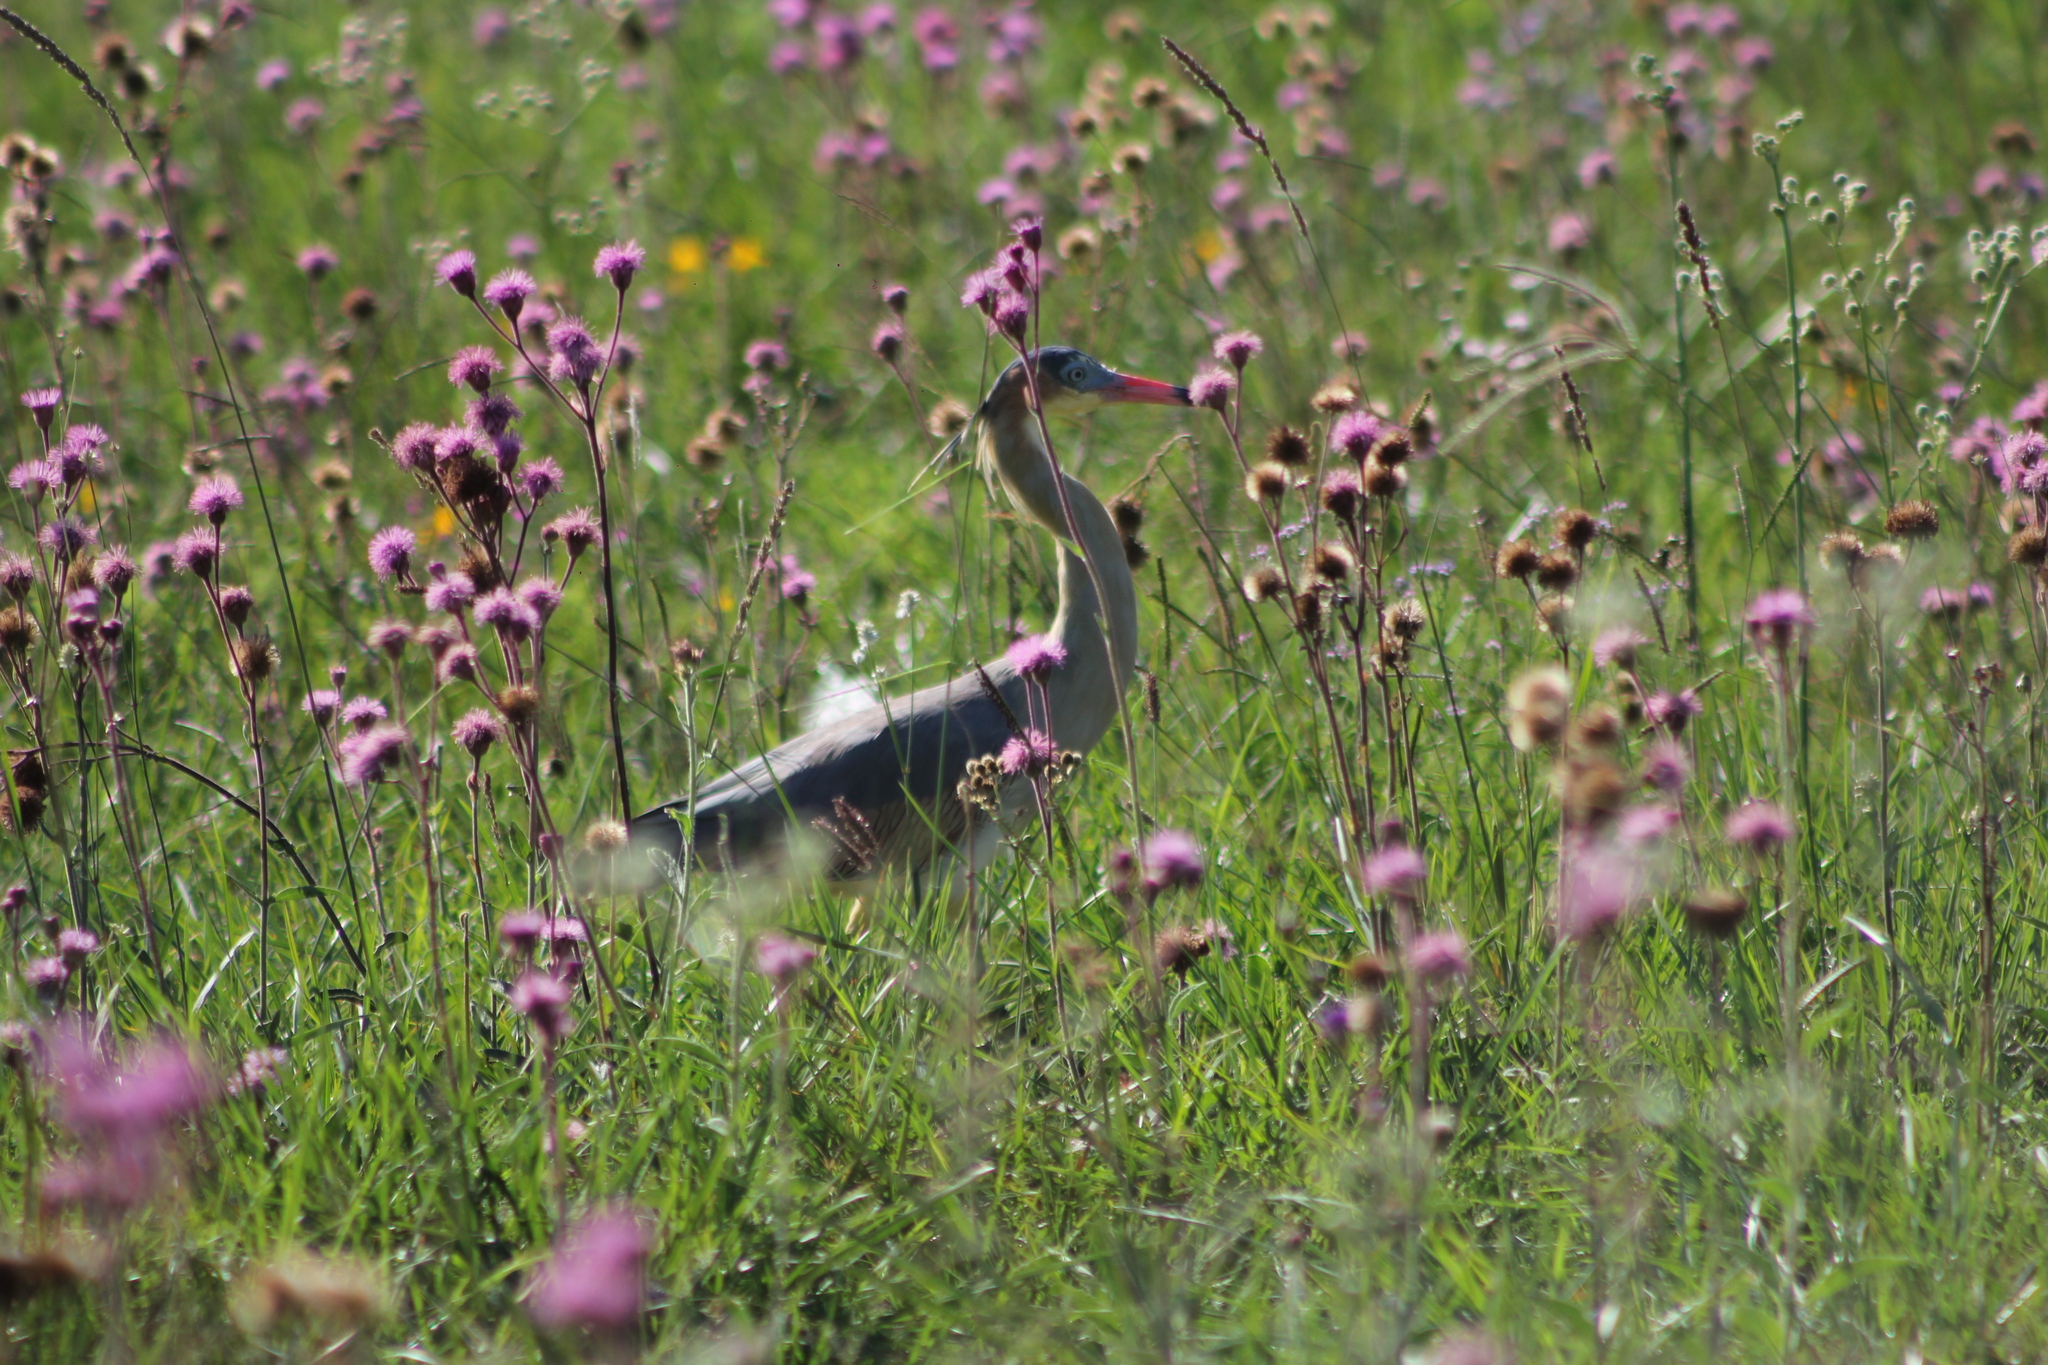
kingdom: Animalia
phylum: Chordata
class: Aves
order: Pelecaniformes
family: Ardeidae
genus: Syrigma
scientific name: Syrigma sibilatrix
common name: Whistling heron
